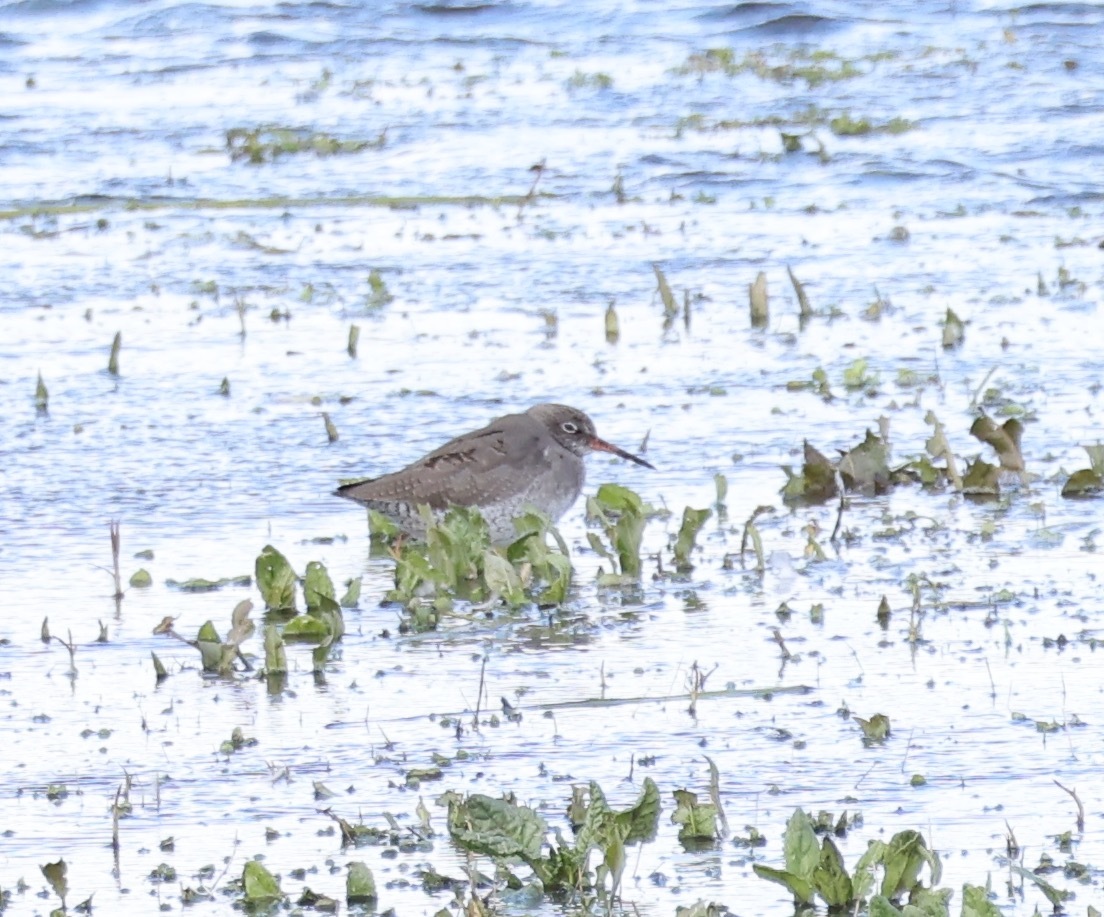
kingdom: Animalia
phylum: Chordata
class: Aves
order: Charadriiformes
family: Scolopacidae
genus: Tringa
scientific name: Tringa totanus
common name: Common redshank
